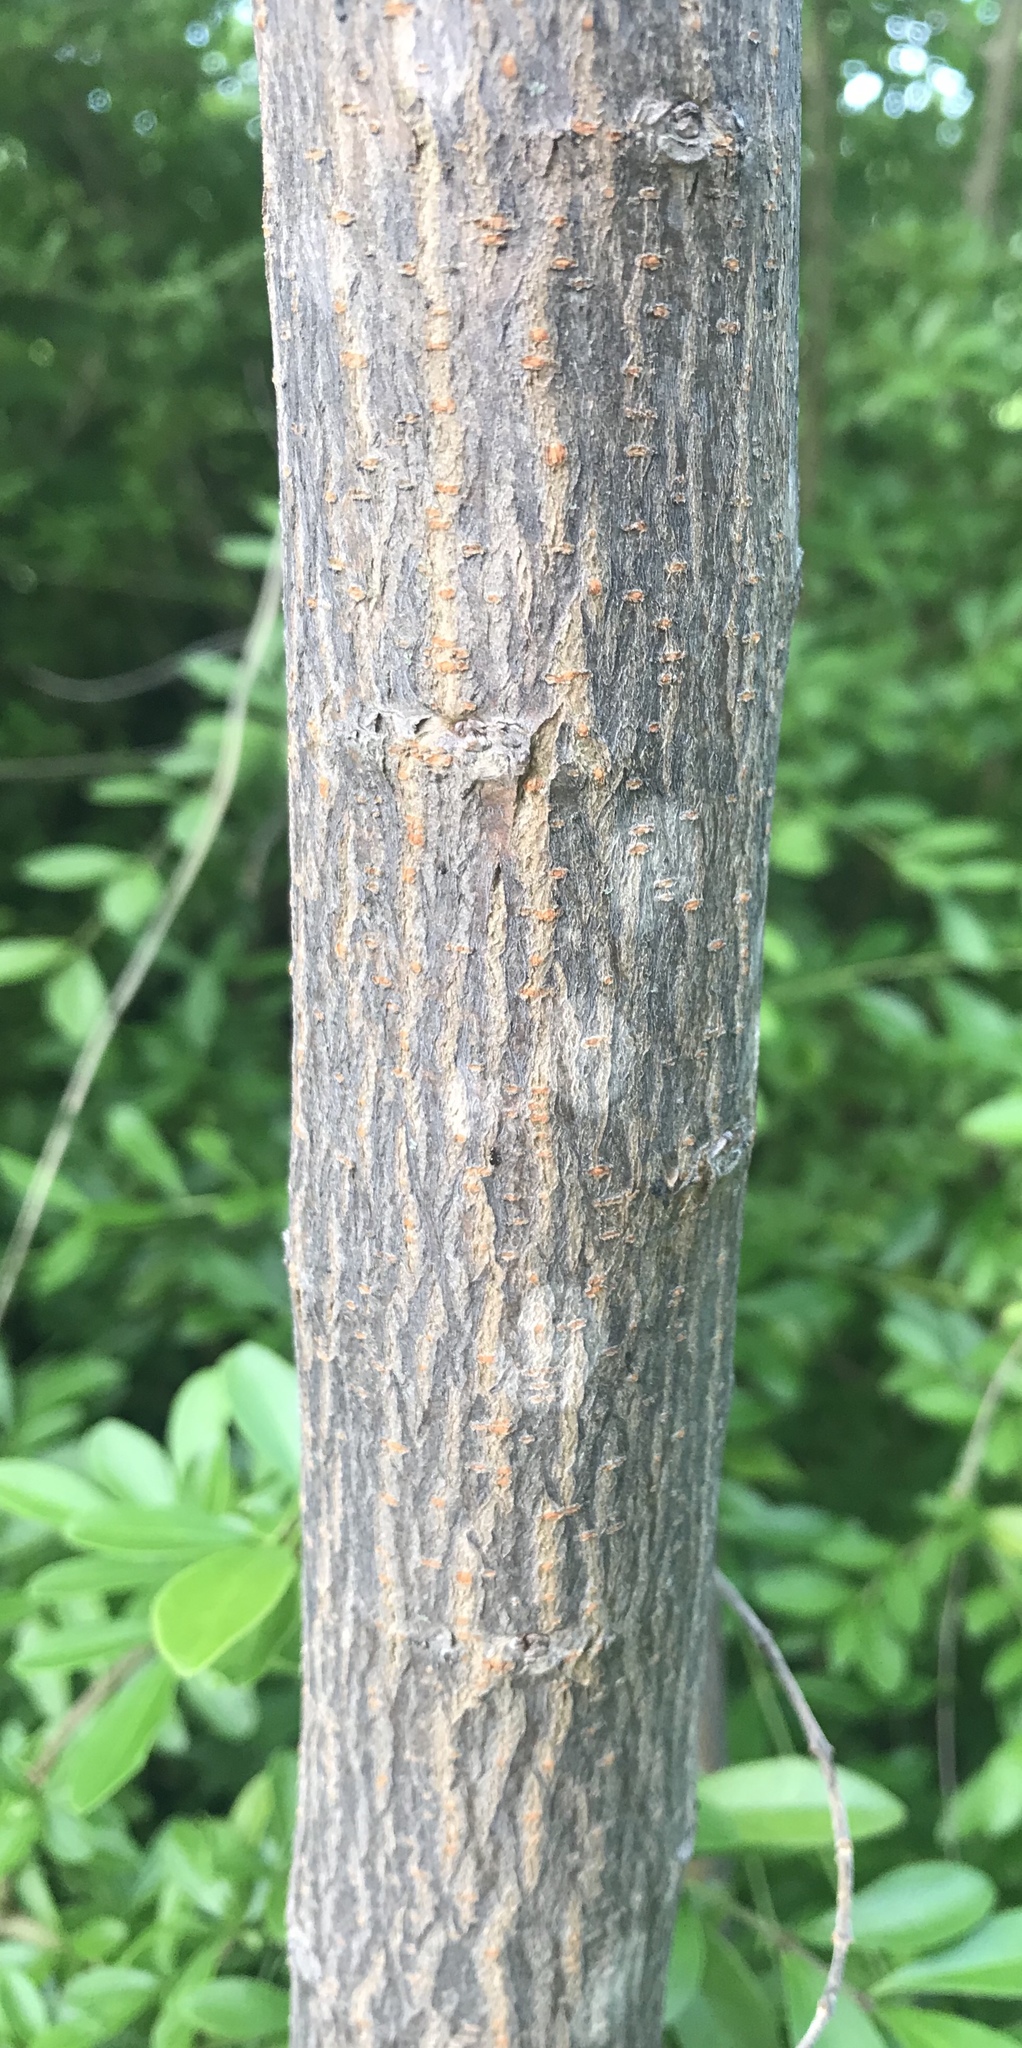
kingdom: Plantae
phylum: Tracheophyta
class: Magnoliopsida
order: Malpighiales
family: Euphorbiaceae
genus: Triadica
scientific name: Triadica sebifera
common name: Chinese tallow
